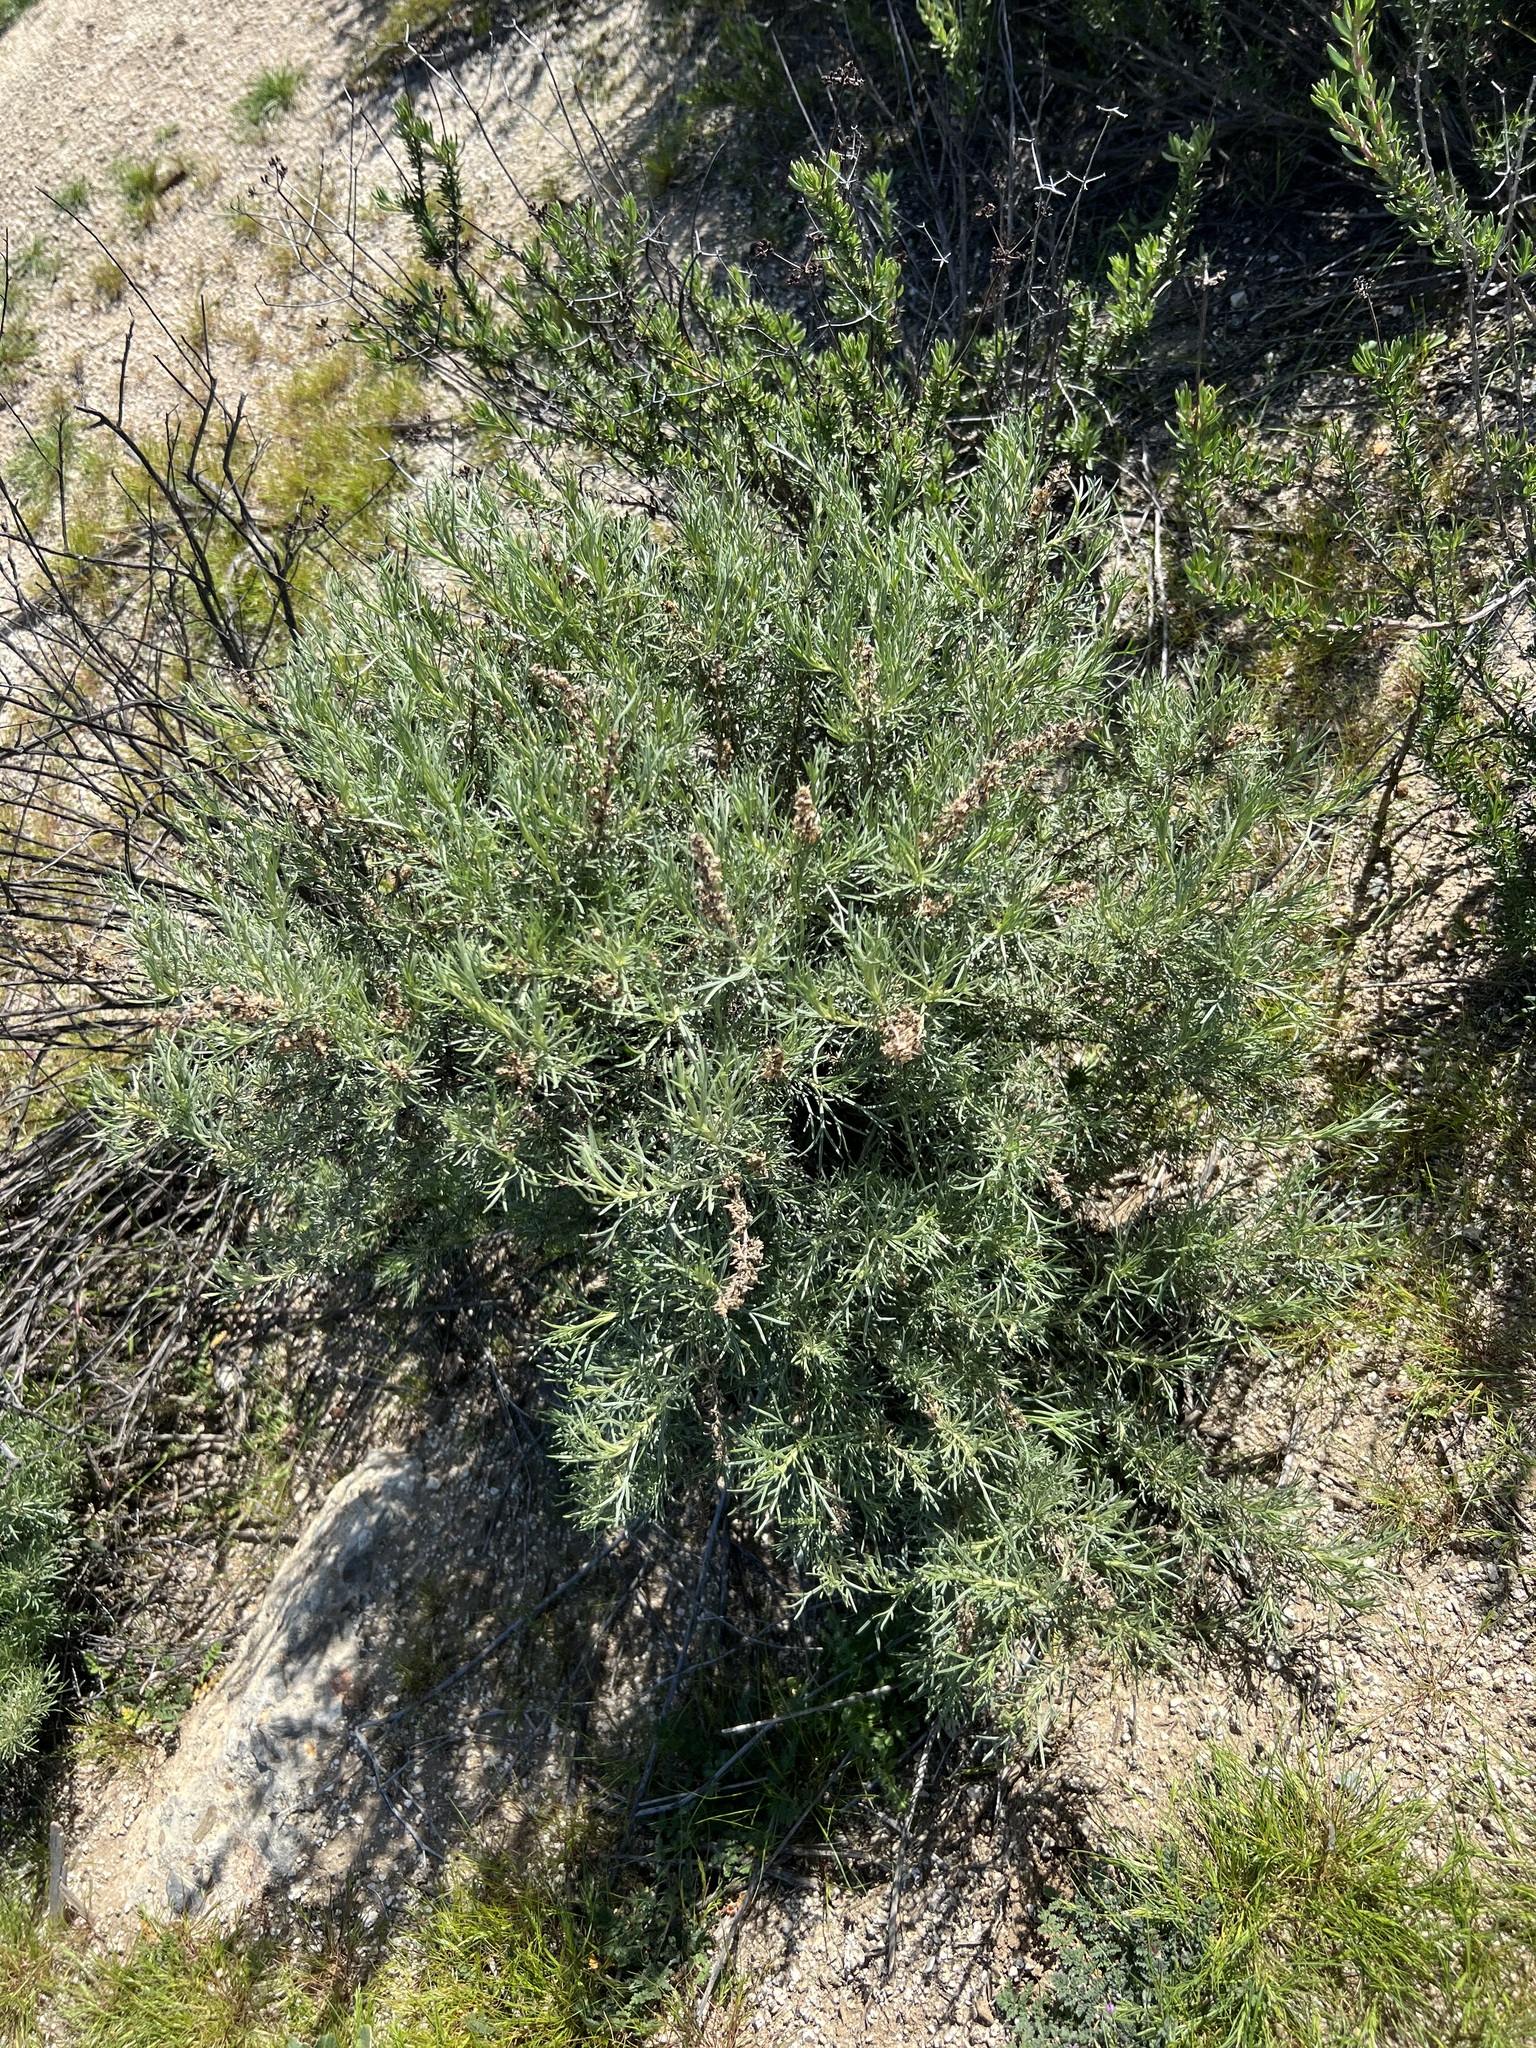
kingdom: Plantae
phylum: Tracheophyta
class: Magnoliopsida
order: Asterales
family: Asteraceae
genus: Artemisia
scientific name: Artemisia californica
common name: California sagebrush
